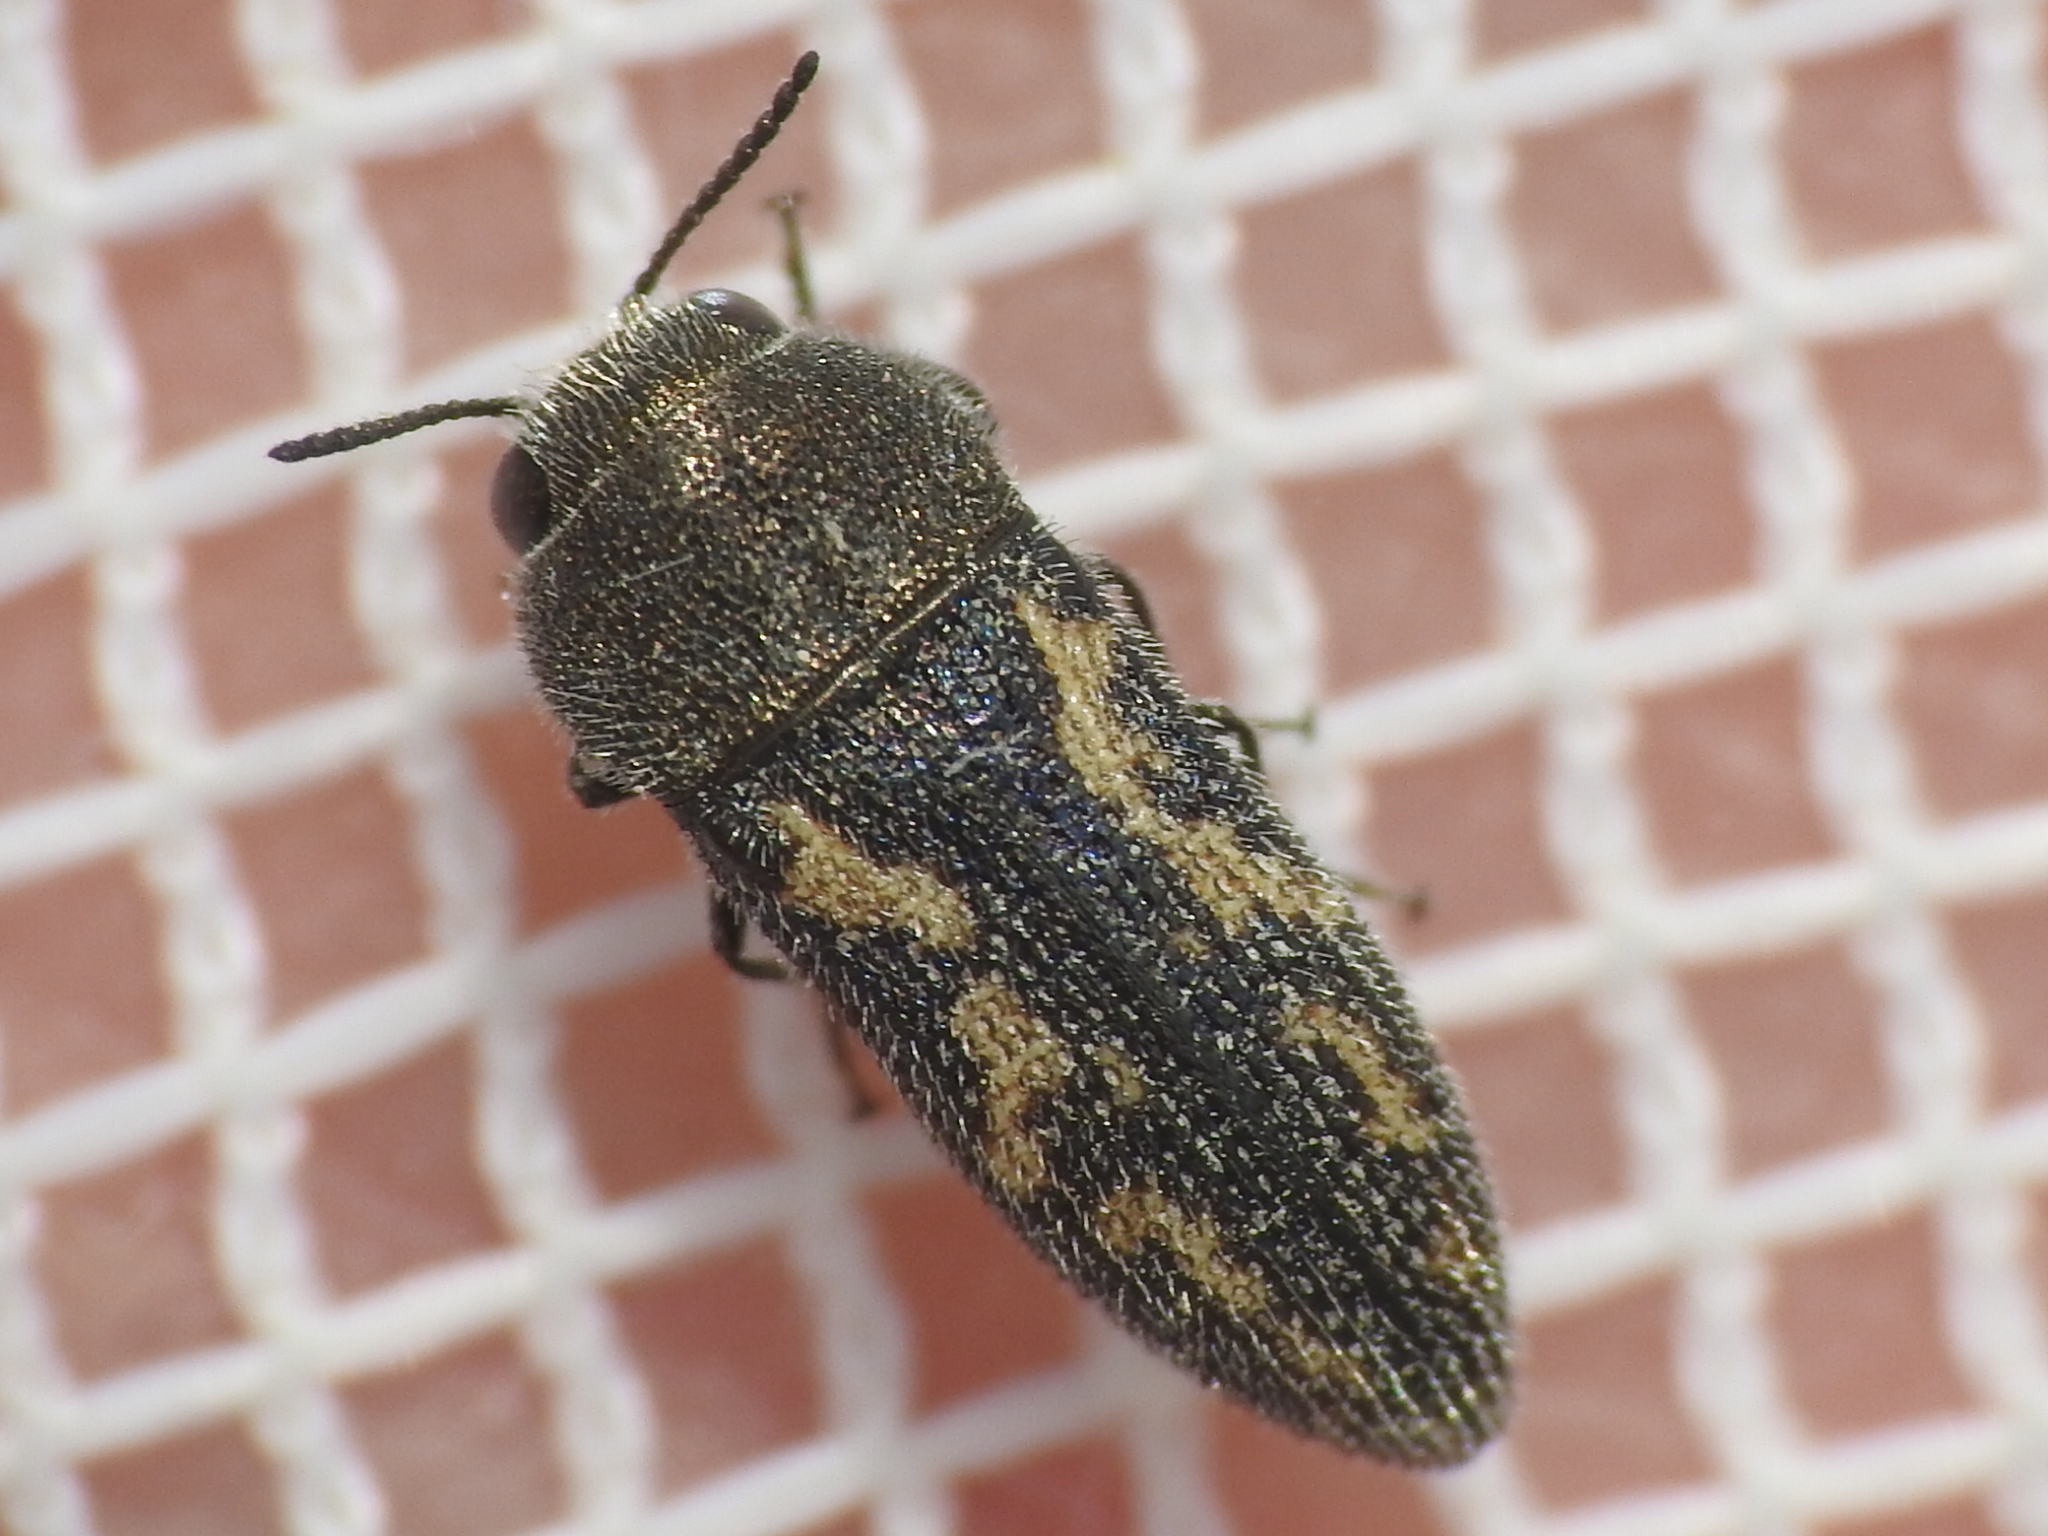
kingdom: Animalia
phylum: Arthropoda
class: Insecta
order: Coleoptera
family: Buprestidae
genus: Acmaeodera
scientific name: Acmaeodera neglecta
